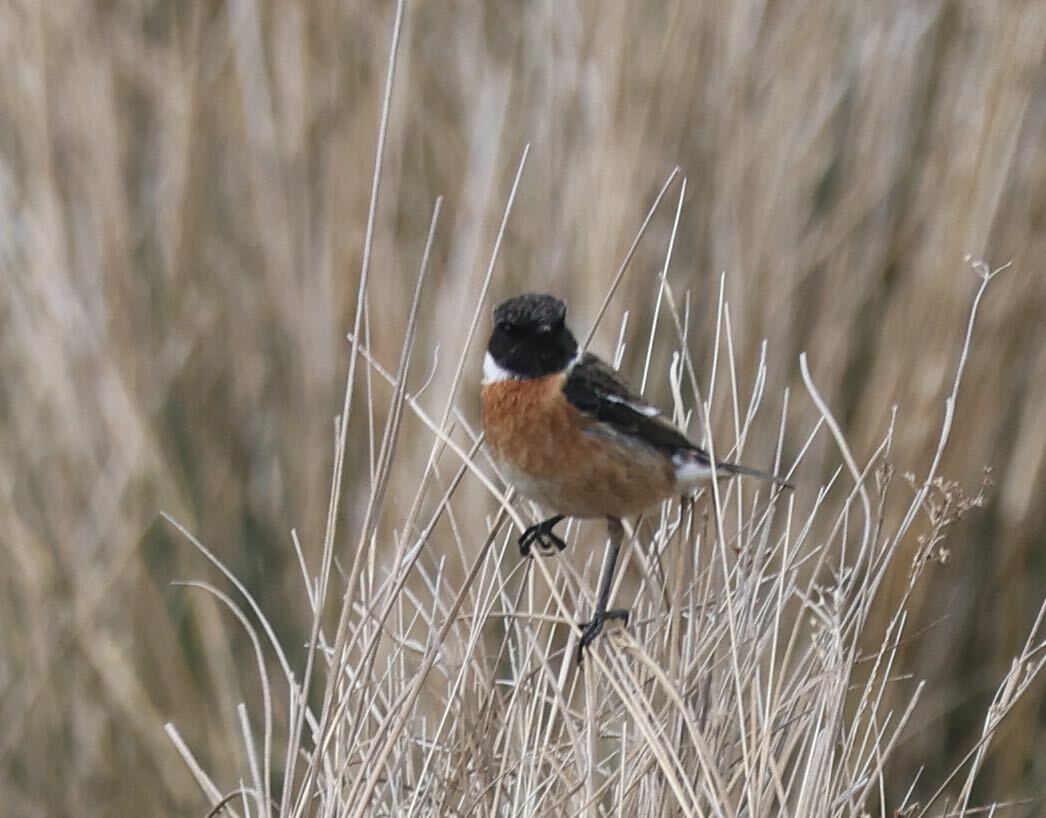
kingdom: Animalia
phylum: Chordata
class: Aves
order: Passeriformes
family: Muscicapidae
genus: Saxicola
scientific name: Saxicola rubicola
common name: European stonechat
